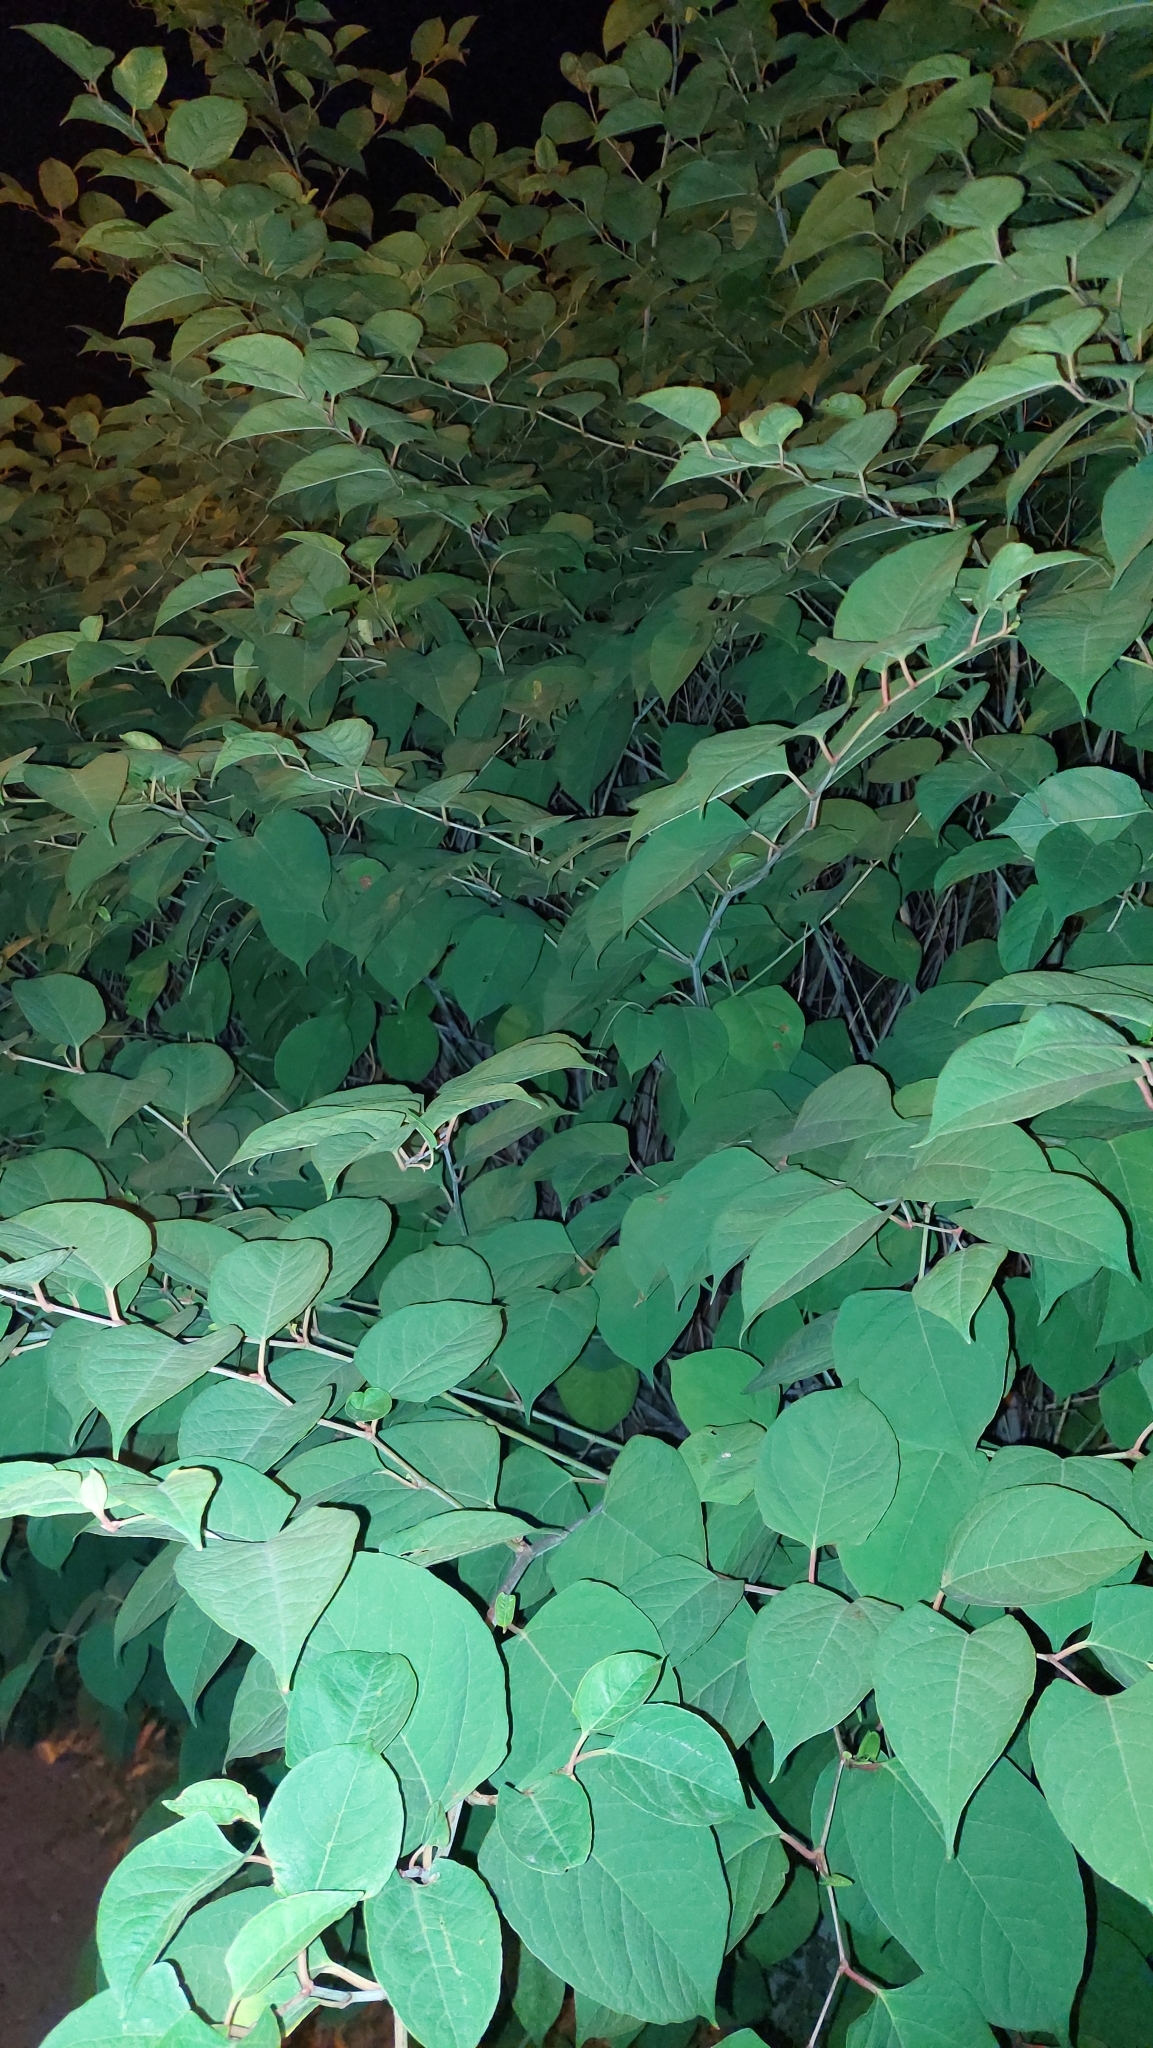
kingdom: Plantae
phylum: Tracheophyta
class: Magnoliopsida
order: Caryophyllales
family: Polygonaceae
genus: Reynoutria
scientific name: Reynoutria japonica
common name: Japanese knotweed
